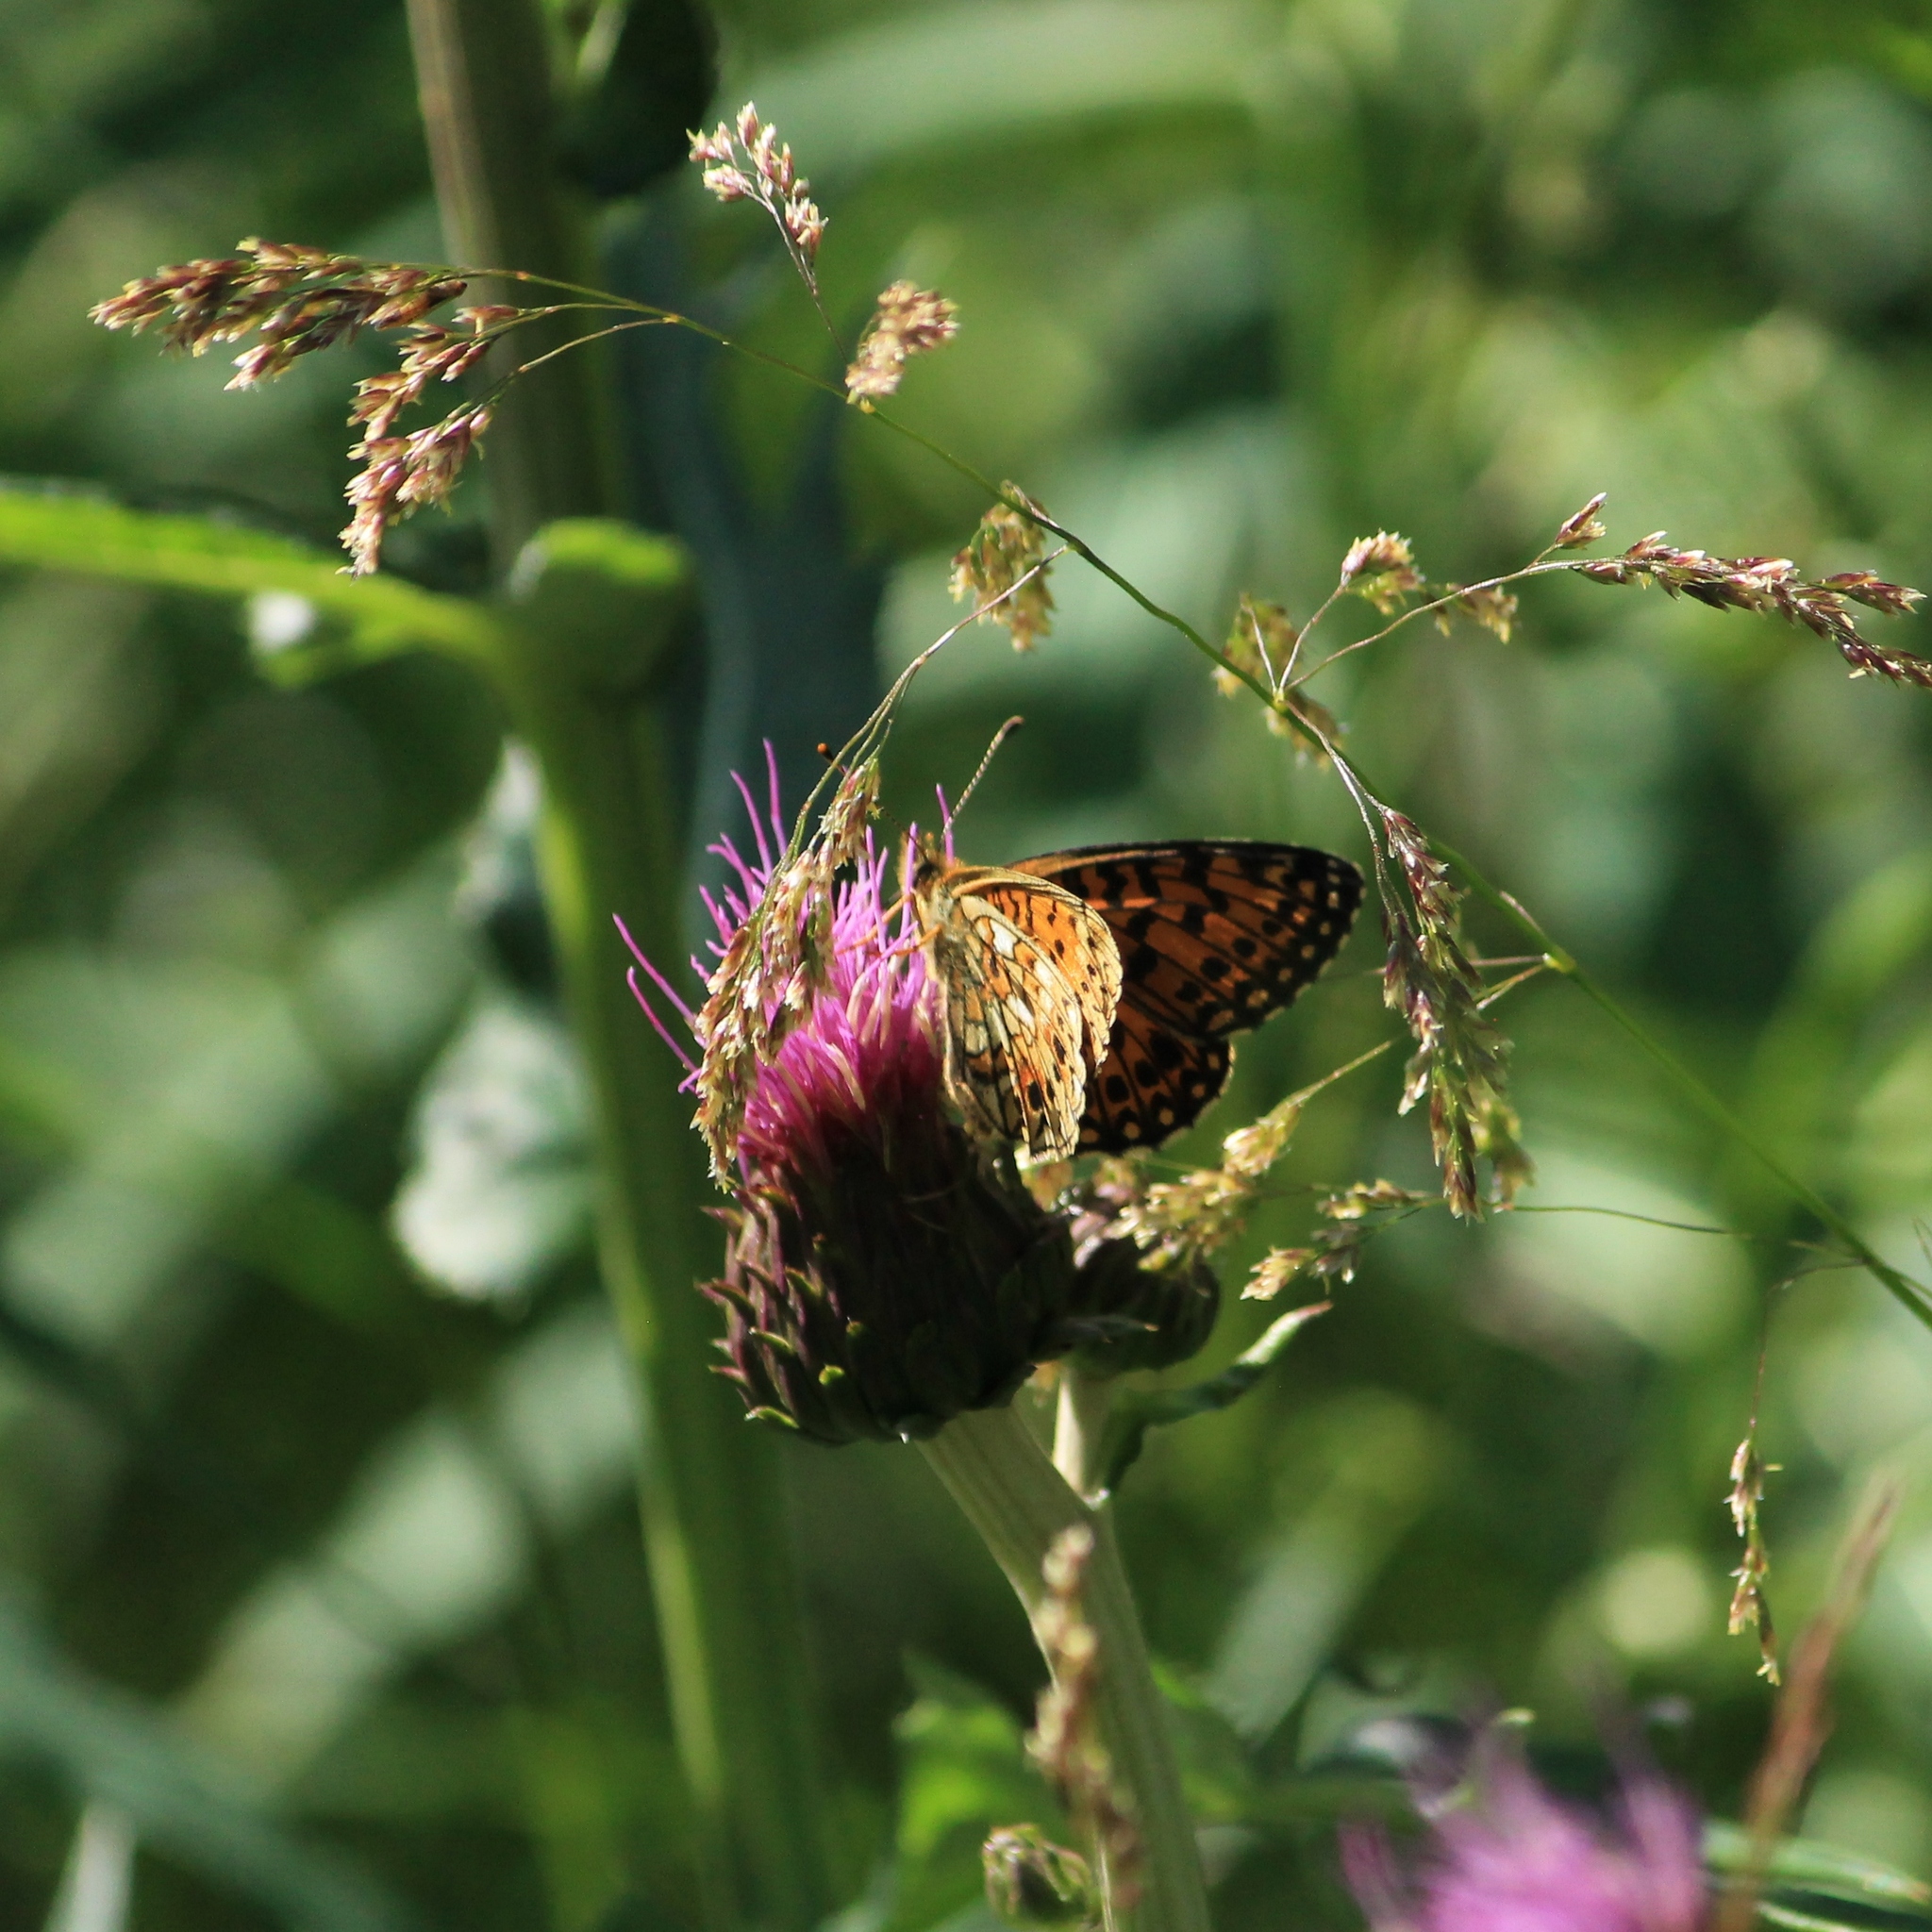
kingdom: Animalia
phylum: Arthropoda
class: Insecta
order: Lepidoptera
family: Nymphalidae
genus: Boloria
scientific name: Boloria selene
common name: Small pearl-bordered fritillary
